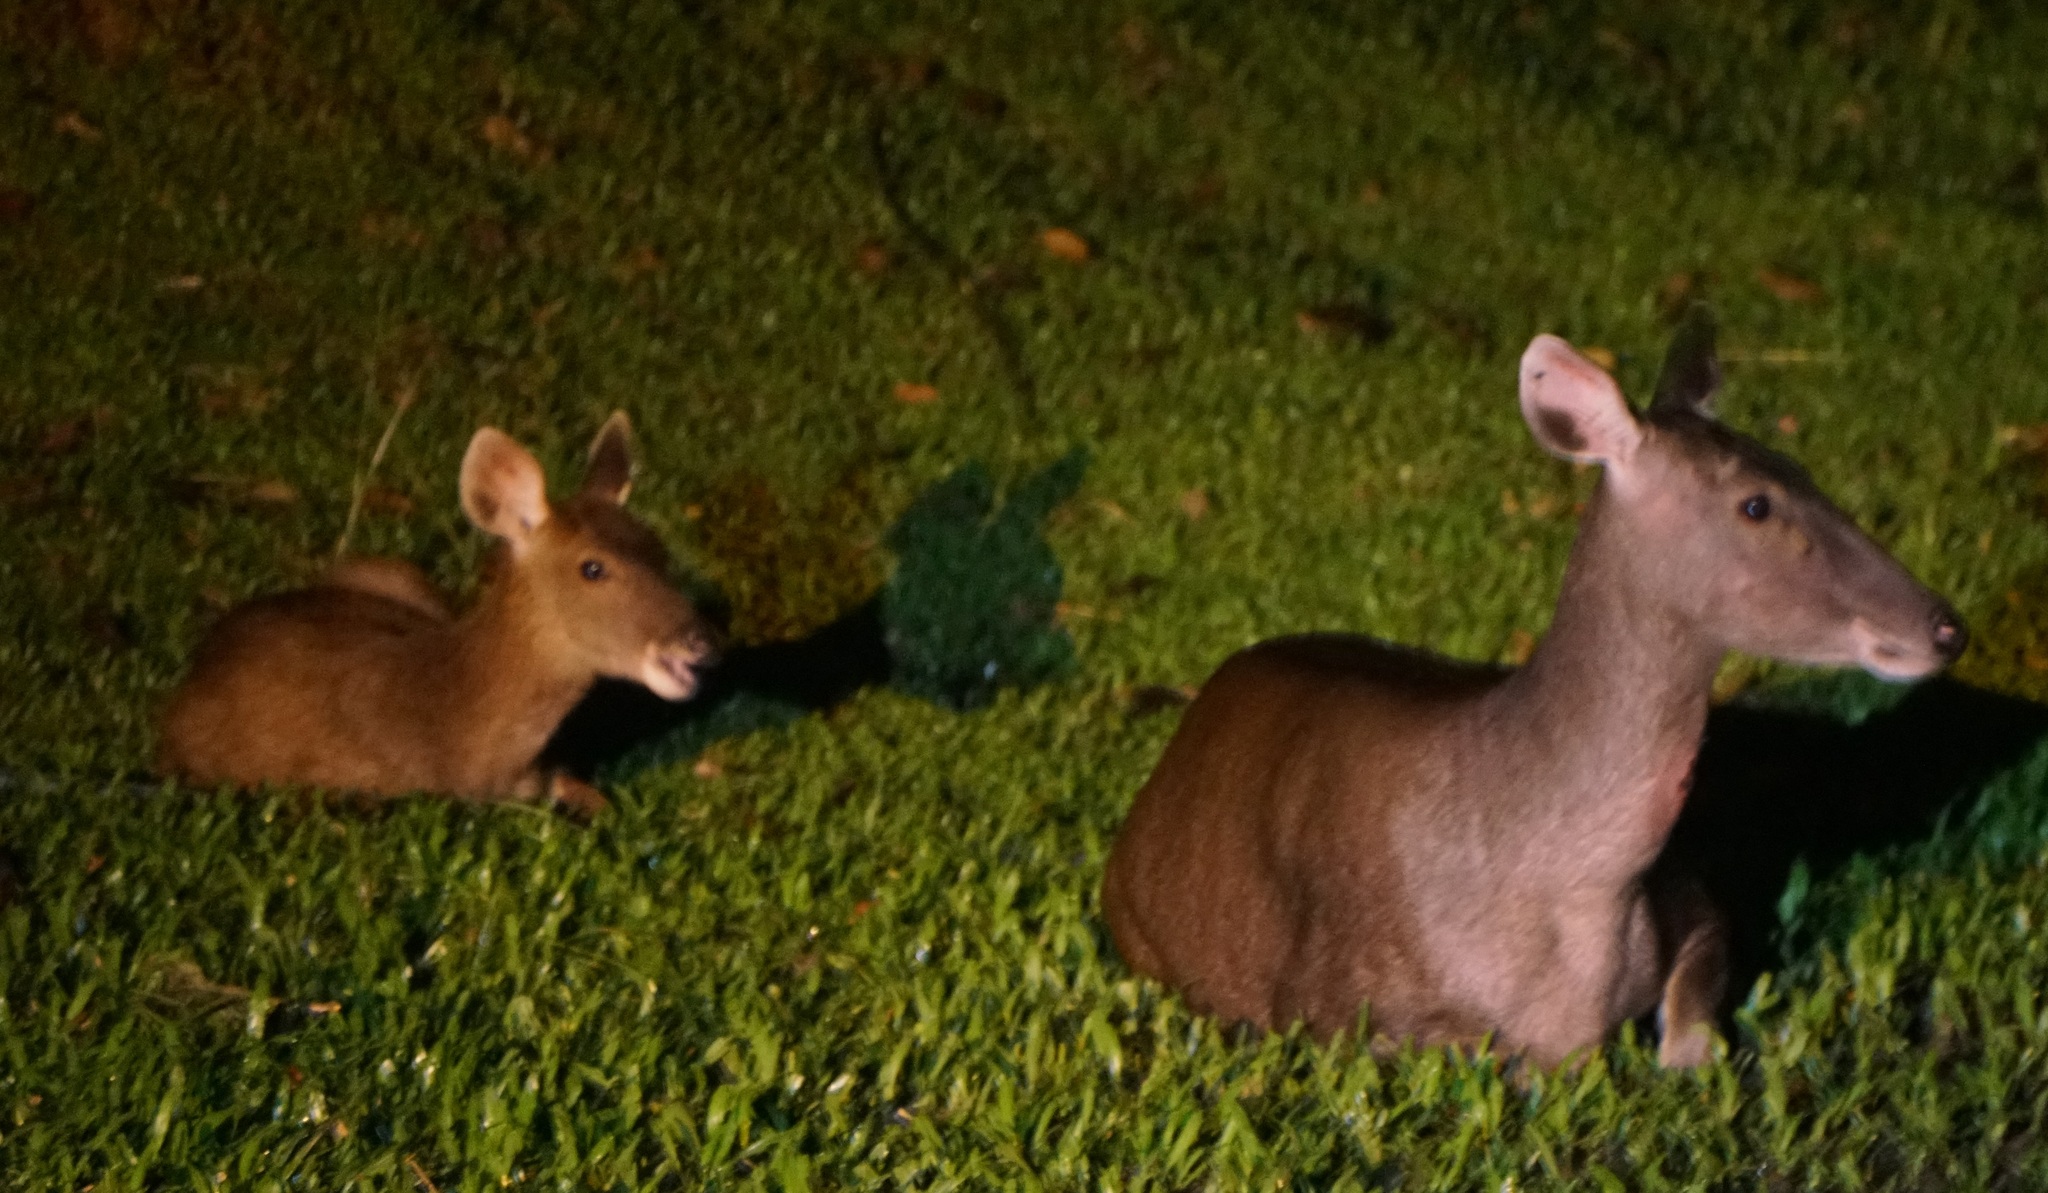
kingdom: Animalia
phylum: Chordata
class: Mammalia
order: Artiodactyla
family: Cervidae
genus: Rusa
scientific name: Rusa unicolor
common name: Sambar
